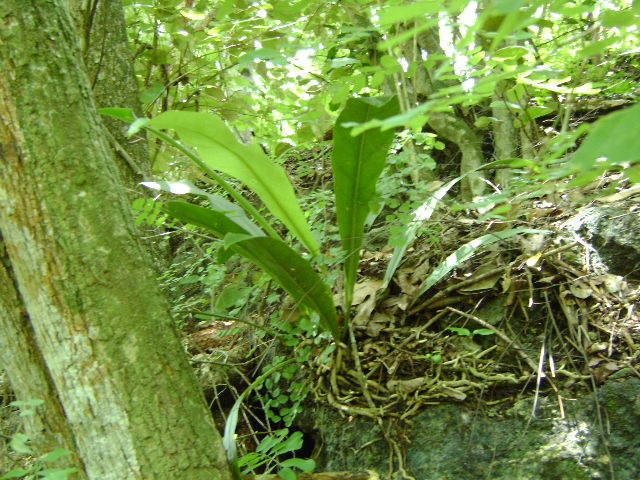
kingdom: Plantae
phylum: Tracheophyta
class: Liliopsida
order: Alismatales
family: Araceae
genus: Anthurium
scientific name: Anthurium schlechtendalii
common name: Laceleaf
